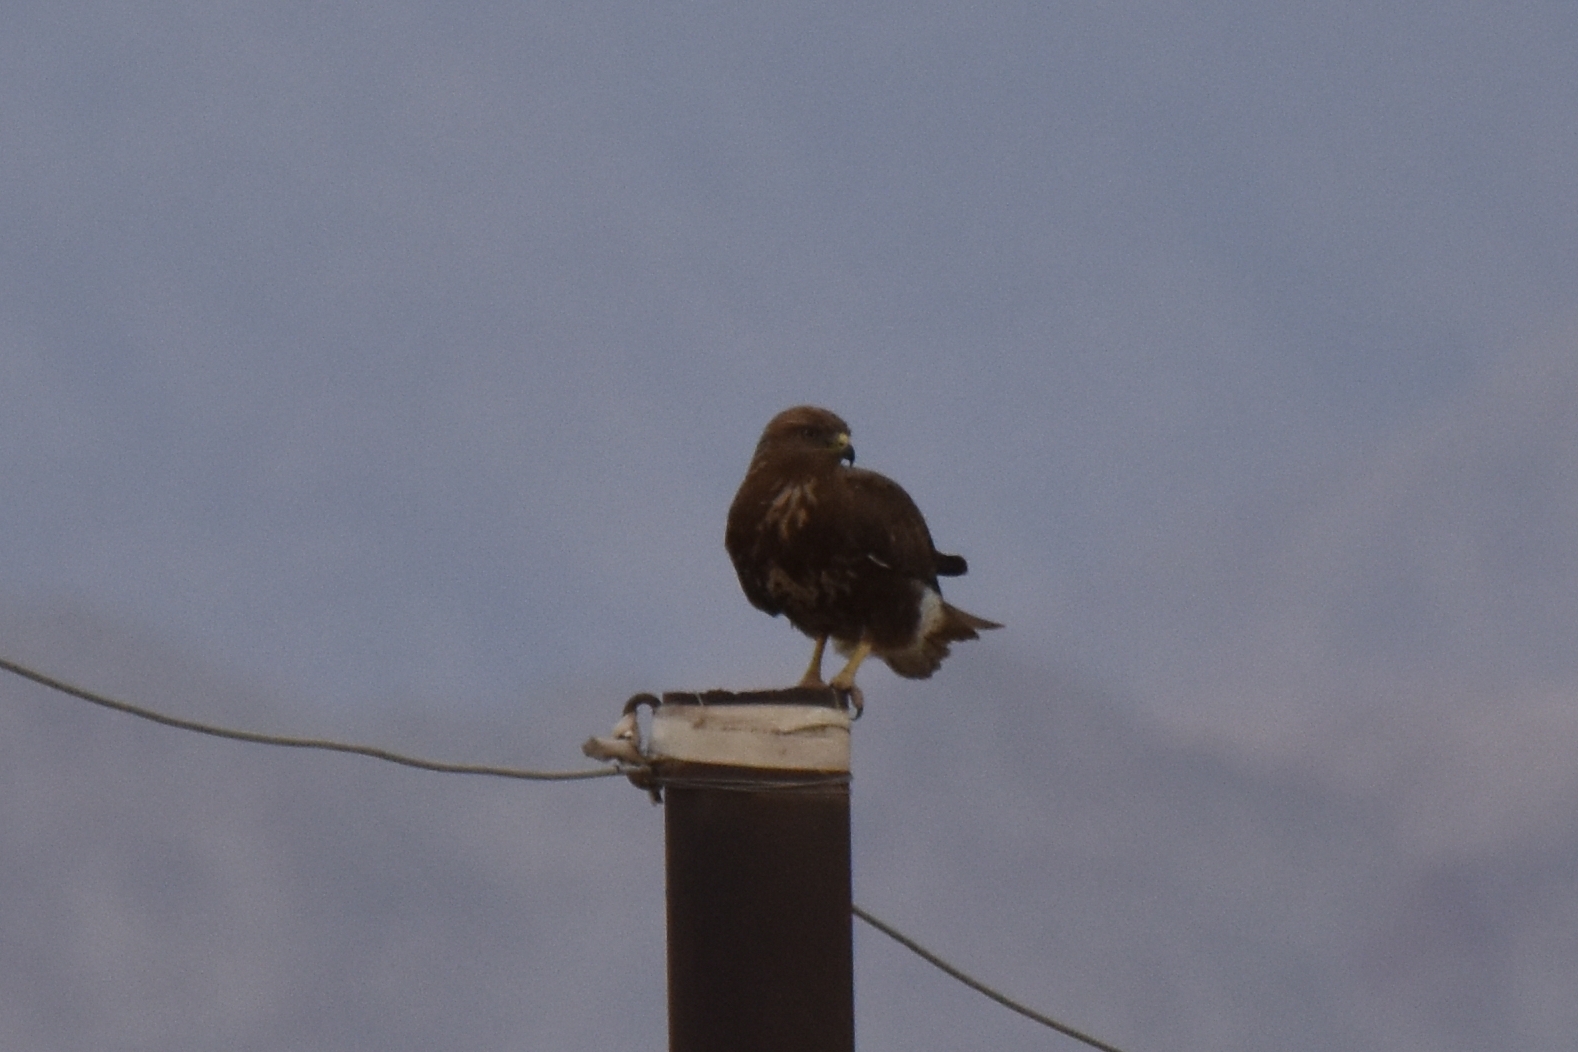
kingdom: Animalia
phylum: Chordata
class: Aves
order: Accipitriformes
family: Accipitridae
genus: Buteo
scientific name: Buteo buteo
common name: Common buzzard
